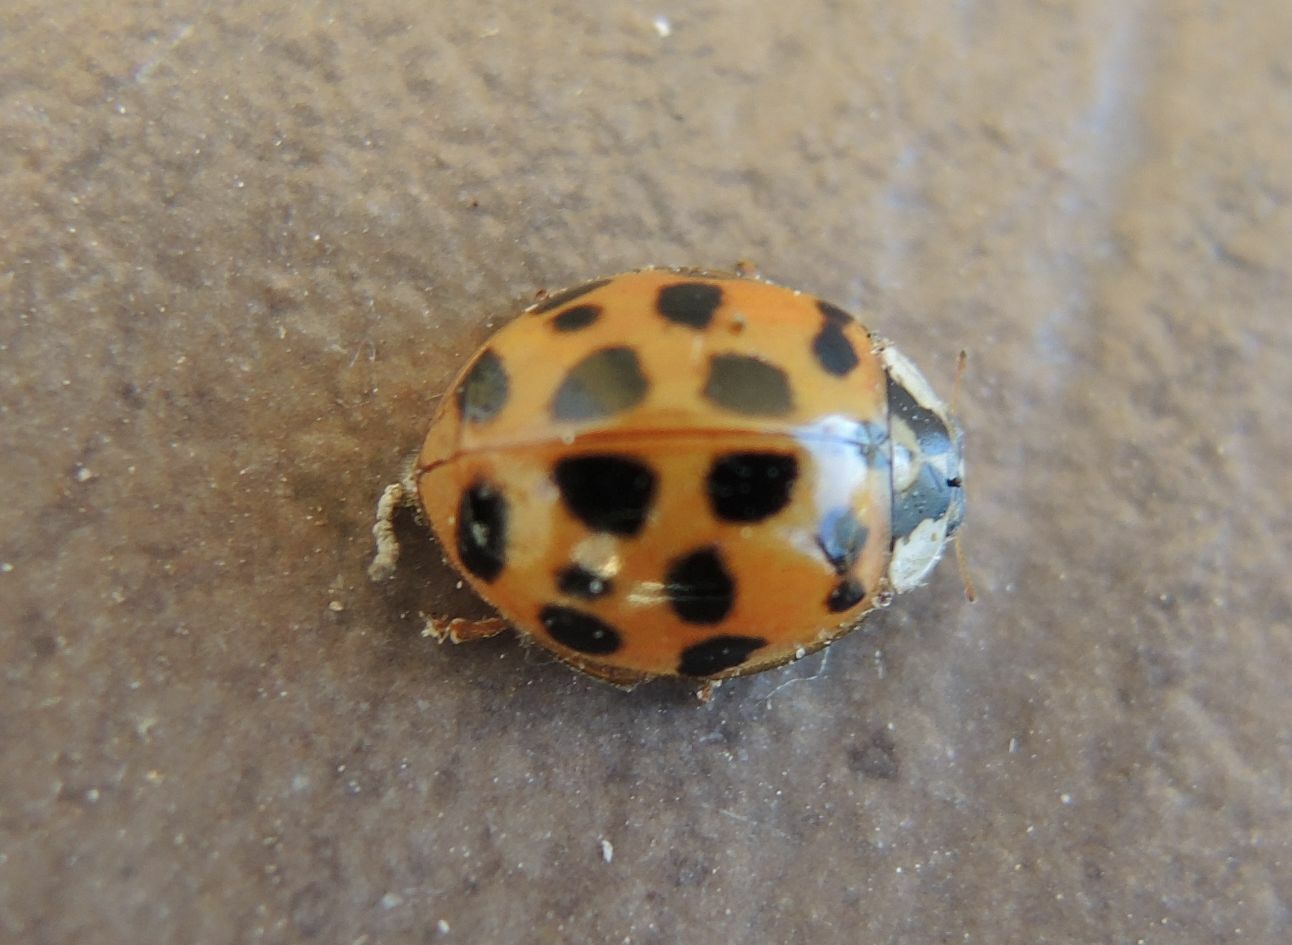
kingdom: Animalia
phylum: Arthropoda
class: Insecta
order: Coleoptera
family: Coccinellidae
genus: Harmonia
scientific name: Harmonia axyridis
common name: Harlequin ladybird
